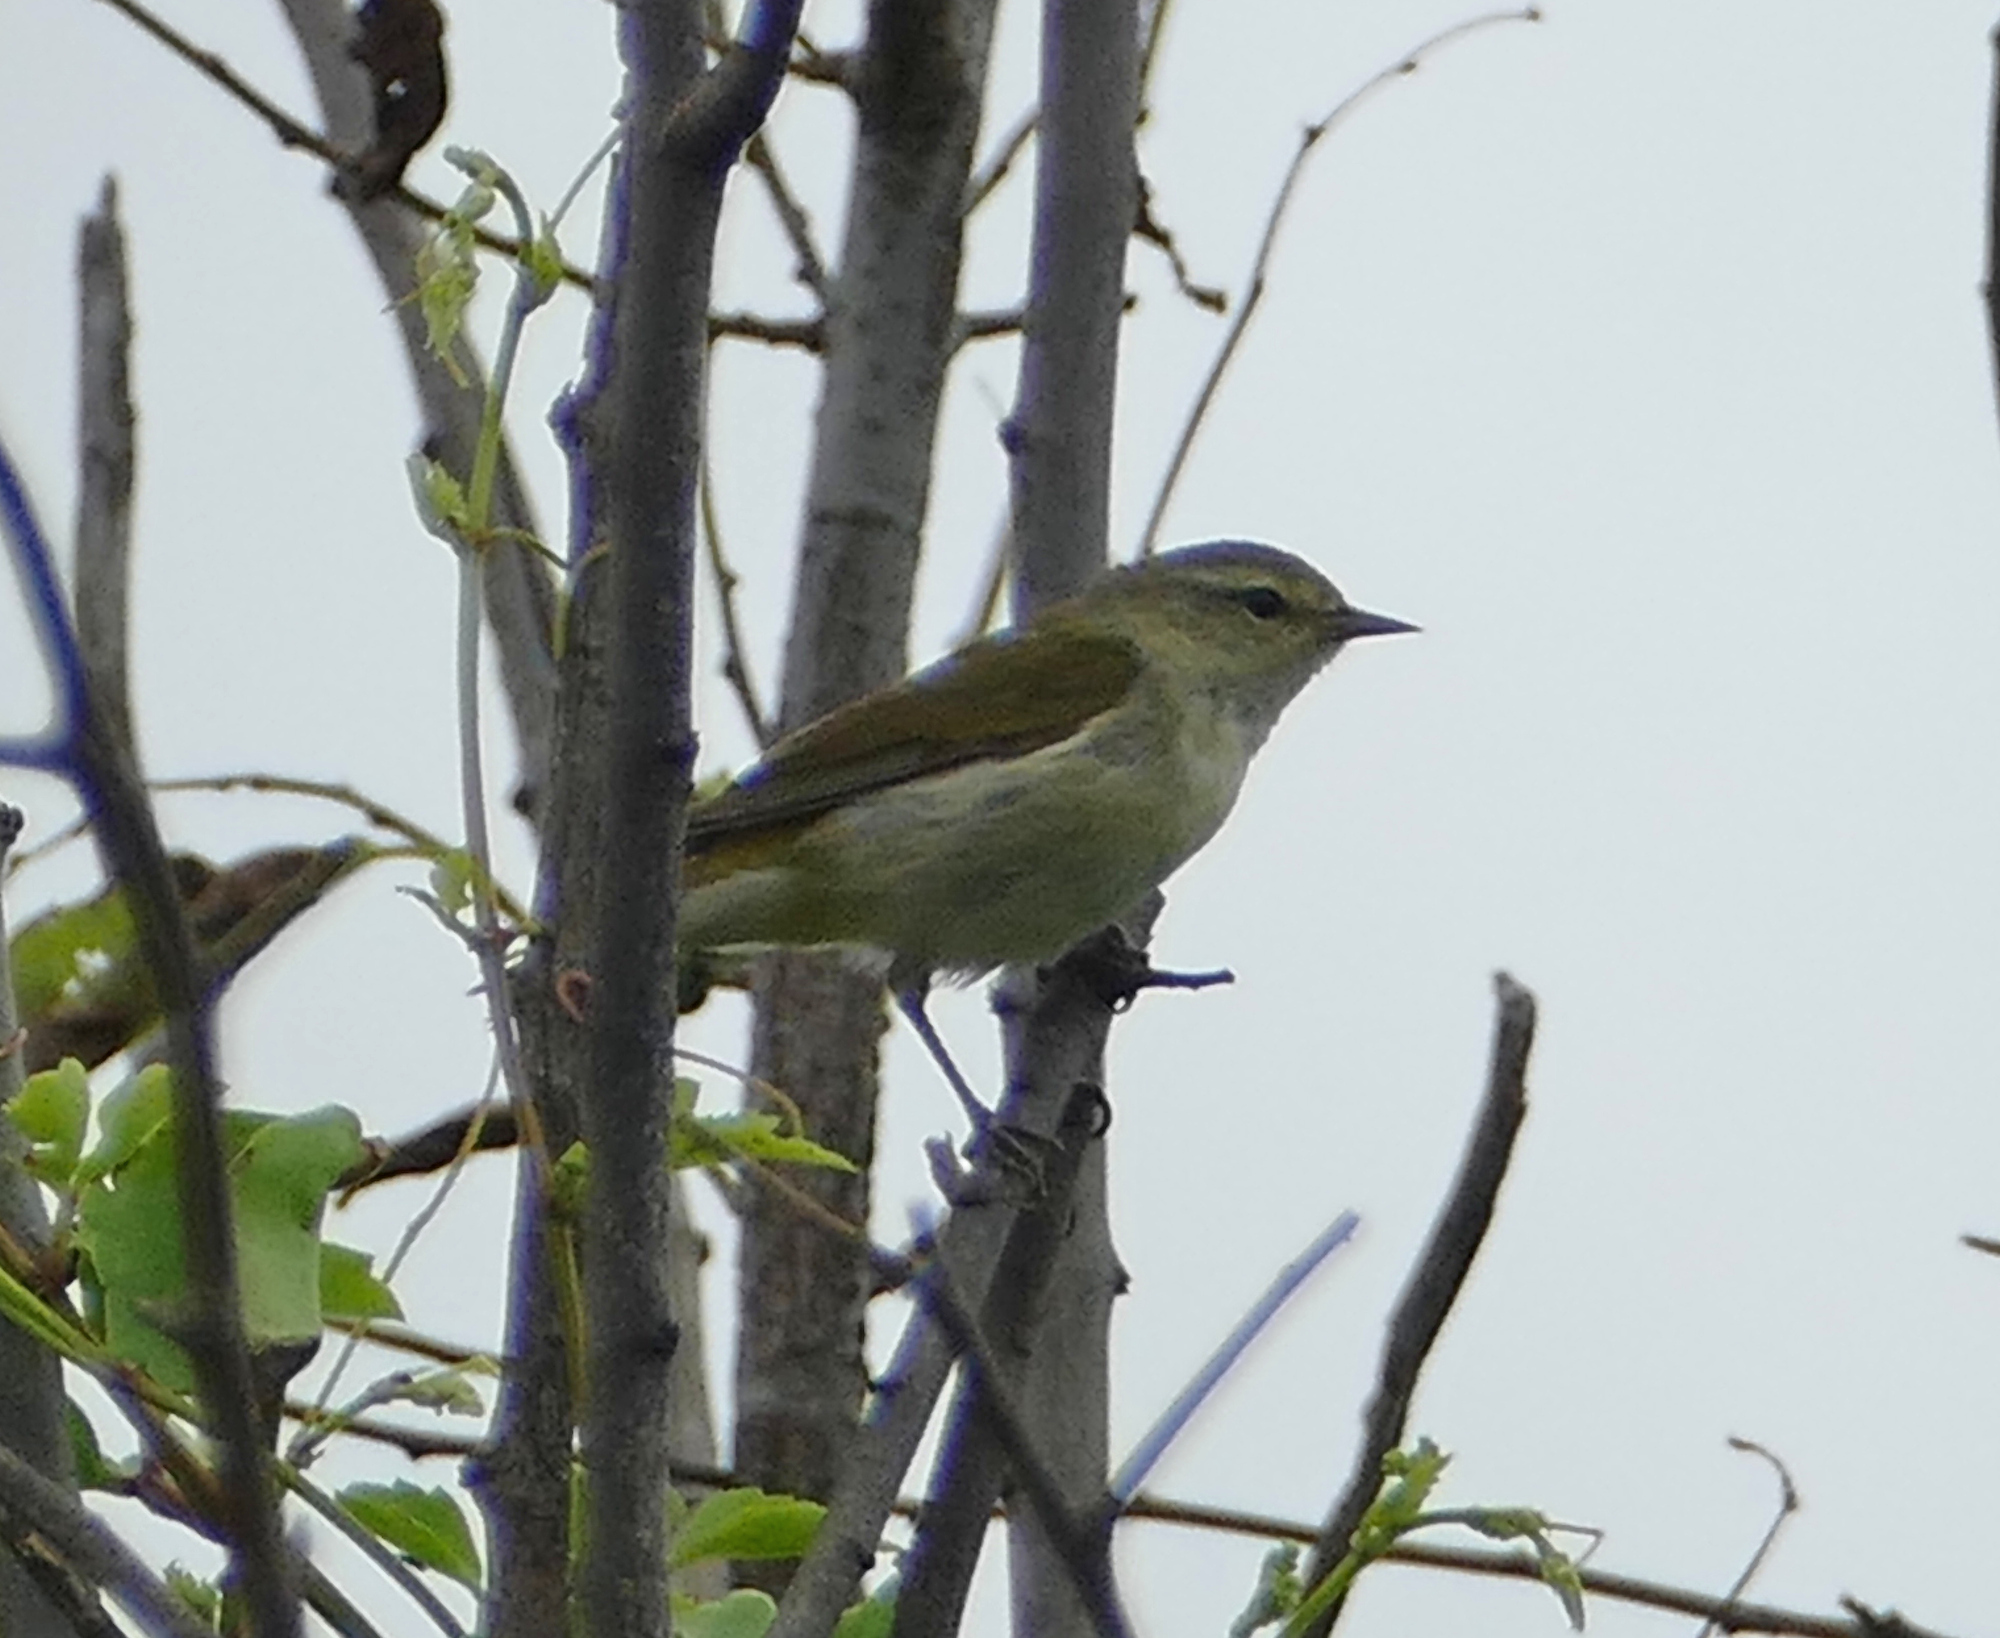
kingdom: Animalia
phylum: Chordata
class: Aves
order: Passeriformes
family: Parulidae
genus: Leiothlypis
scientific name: Leiothlypis peregrina
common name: Tennessee warbler
